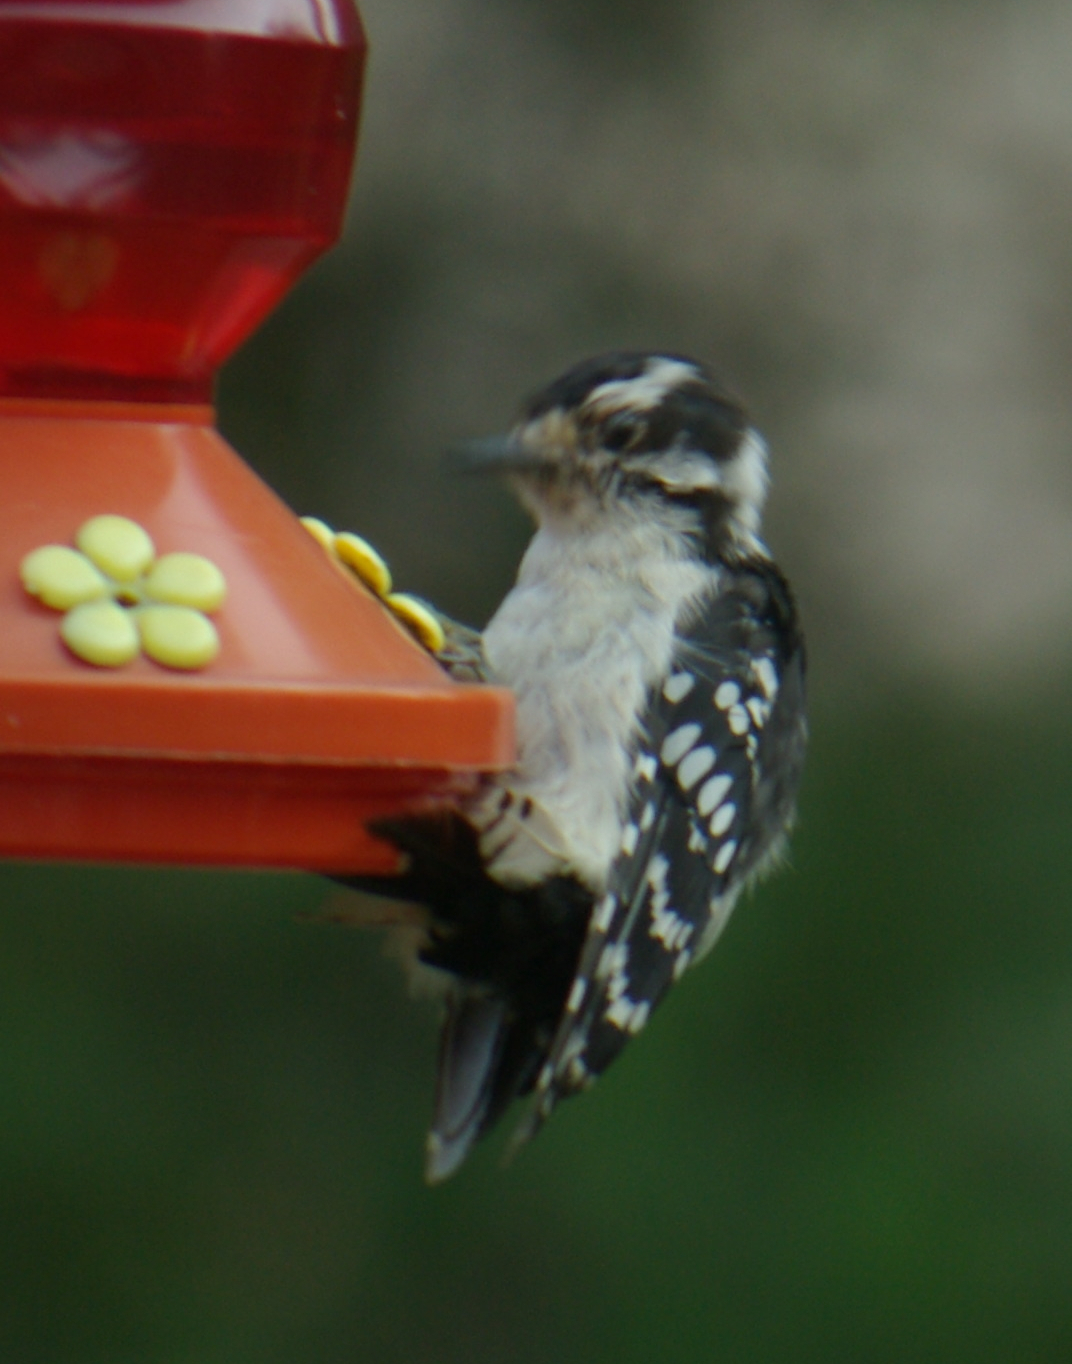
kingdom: Animalia
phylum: Chordata
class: Aves
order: Piciformes
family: Picidae
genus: Dryobates
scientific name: Dryobates pubescens
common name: Downy woodpecker
